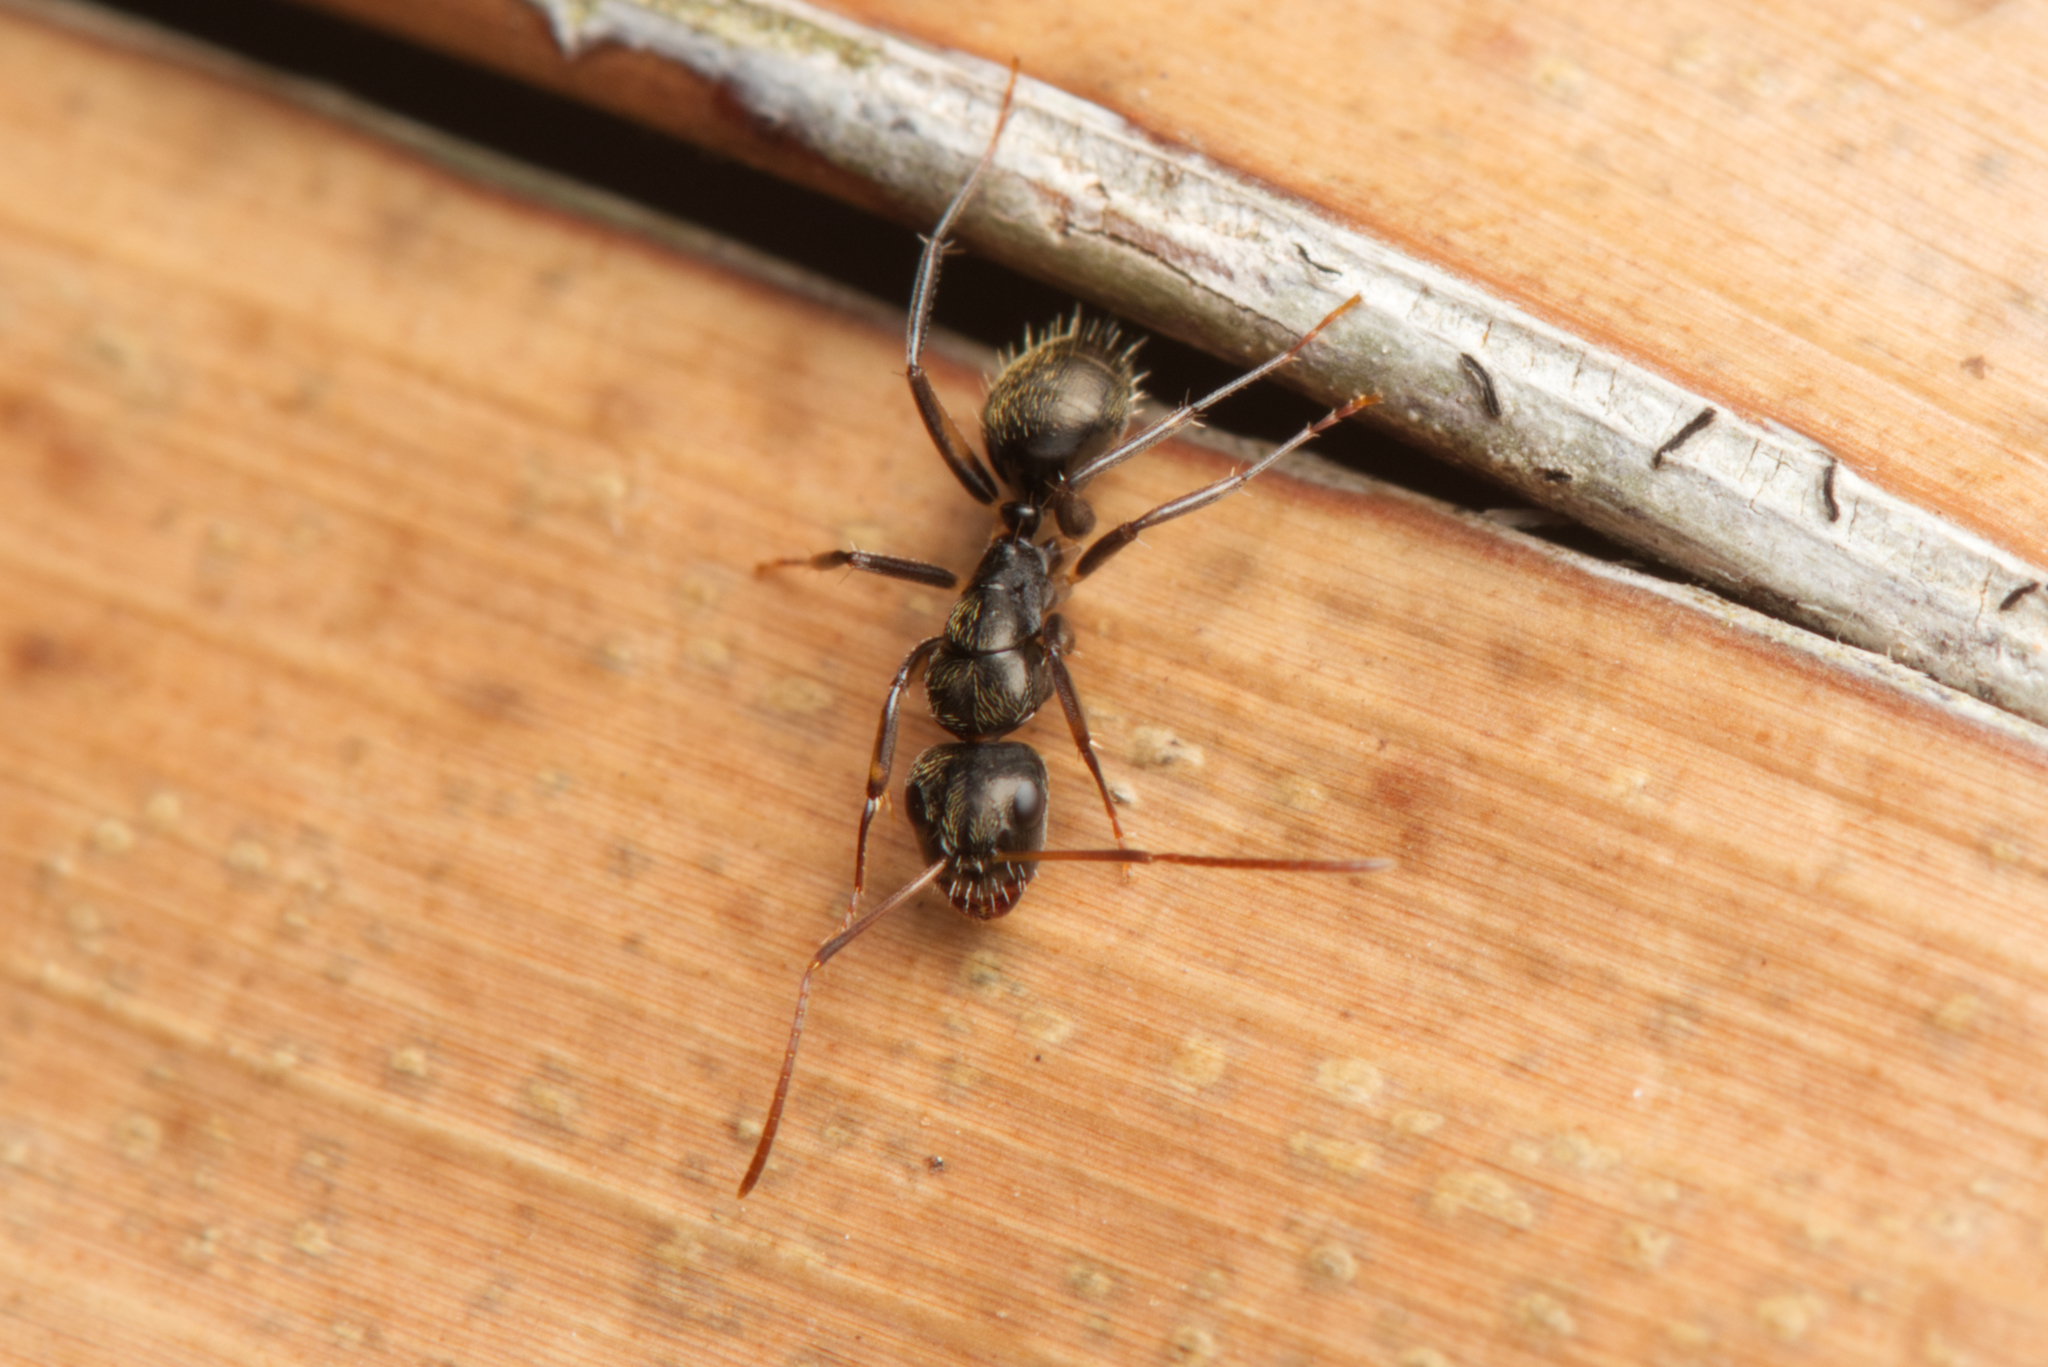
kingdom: Animalia
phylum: Arthropoda
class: Insecta
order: Hymenoptera
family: Formicidae
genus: Camponotus
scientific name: Camponotus froggatti
